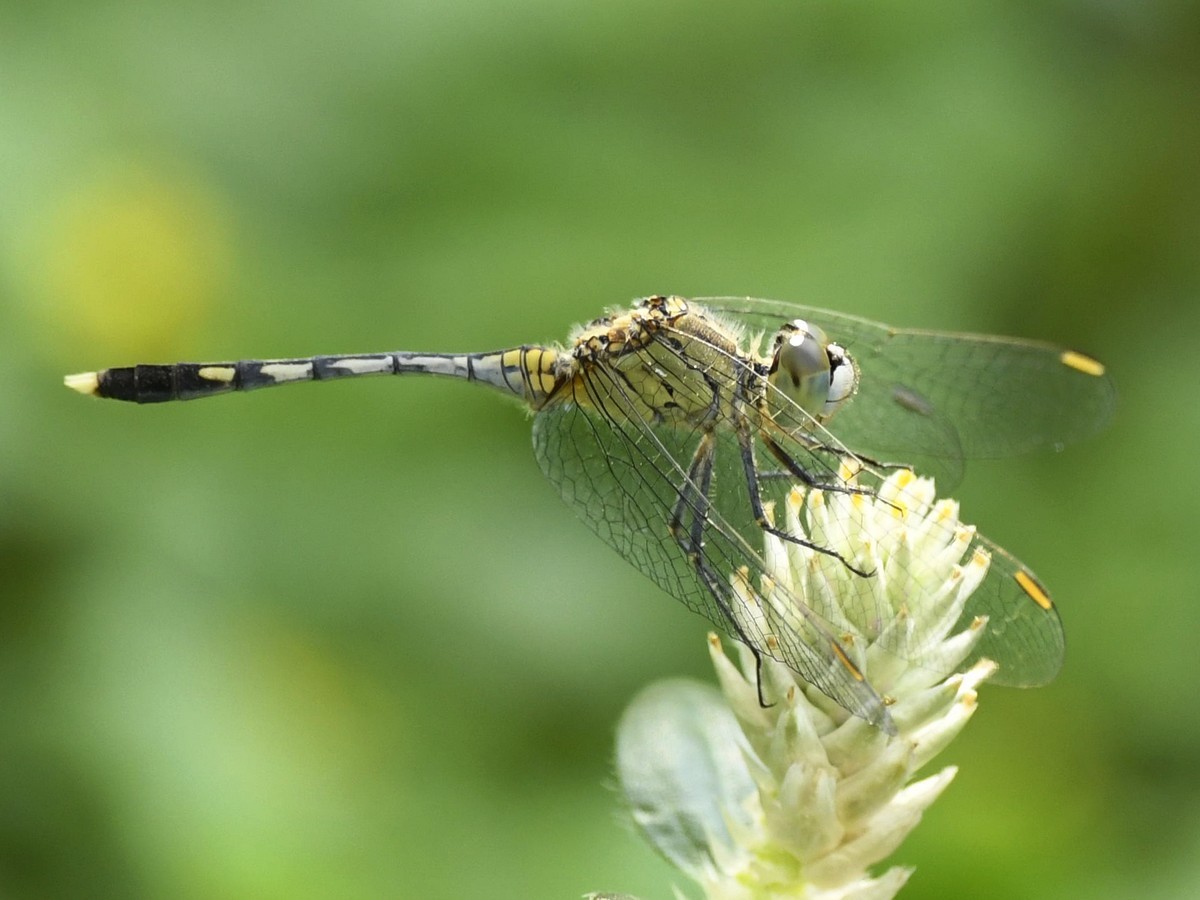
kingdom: Animalia
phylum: Arthropoda
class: Insecta
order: Odonata
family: Libellulidae
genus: Diplacodes
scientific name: Diplacodes trivialis
